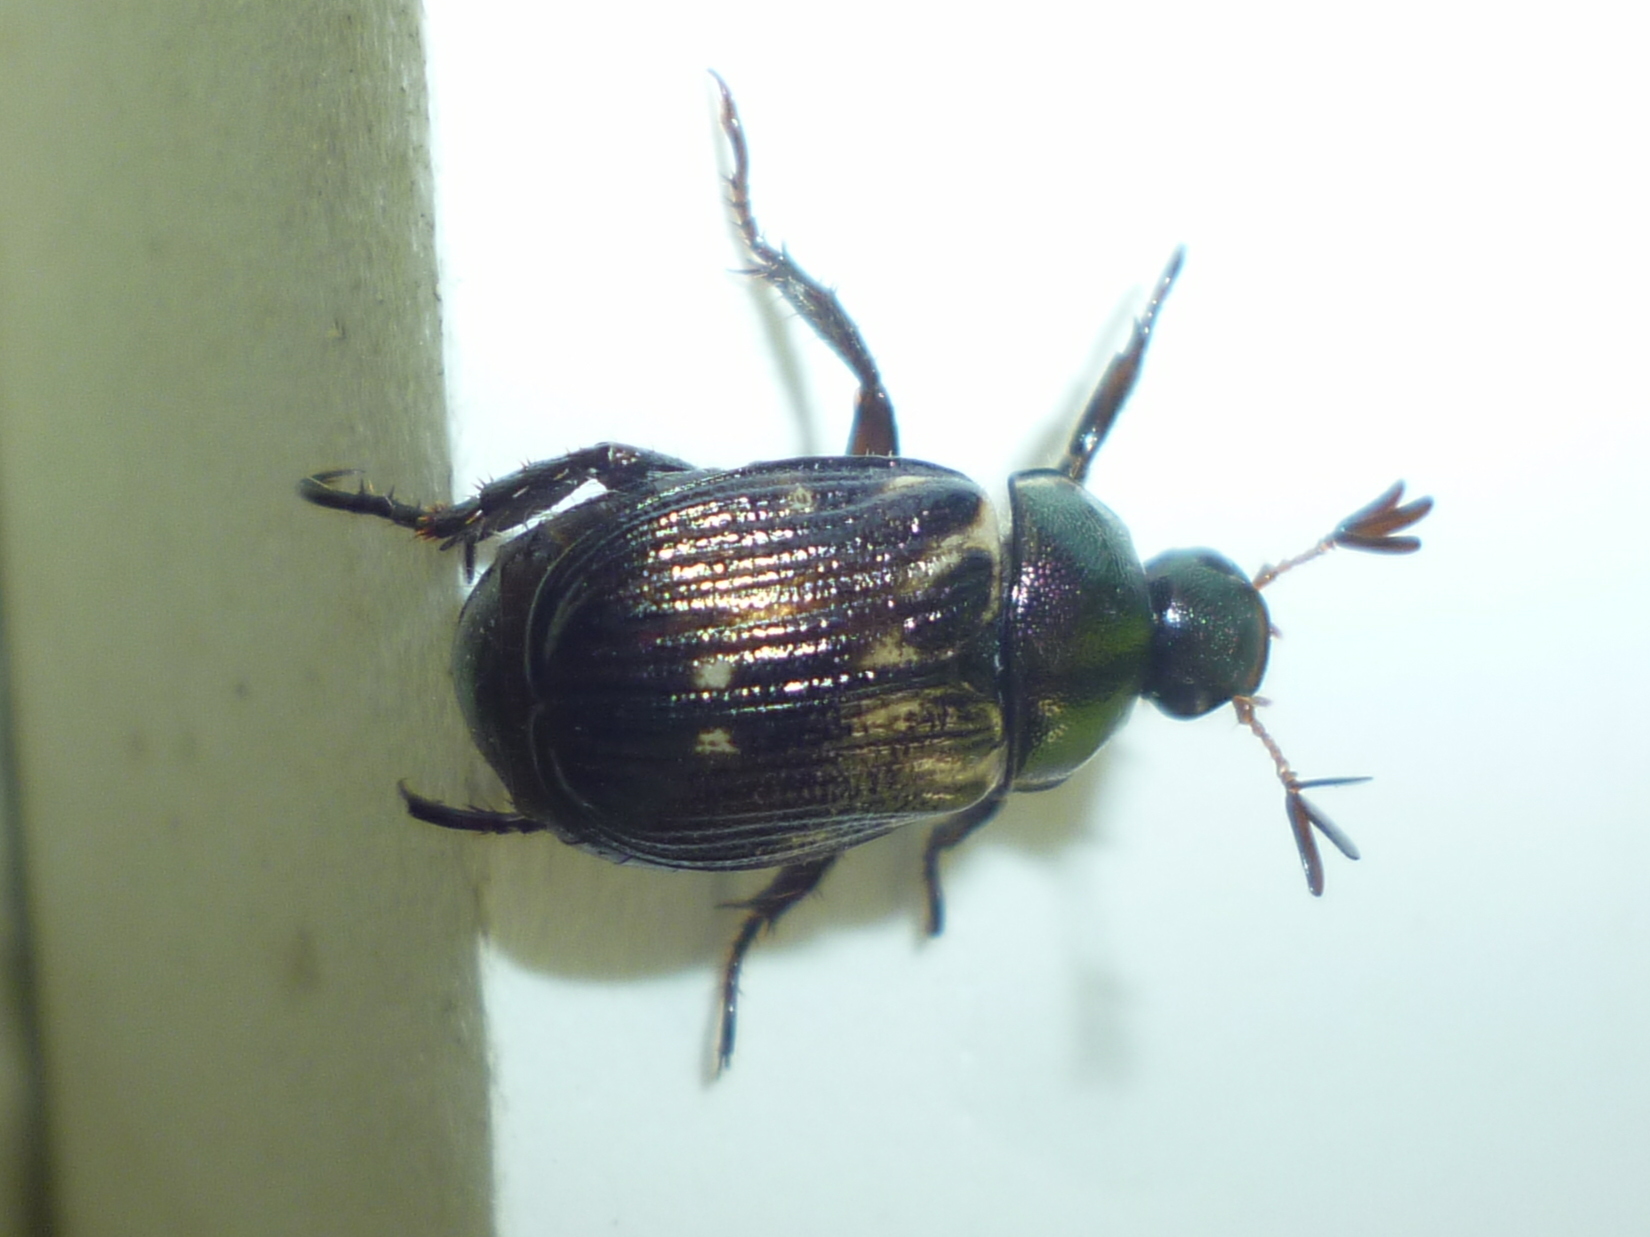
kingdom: Animalia
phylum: Arthropoda
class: Insecta
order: Coleoptera
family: Scarabaeidae
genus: Exomala
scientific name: Exomala orientalis
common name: Oriental beetle
